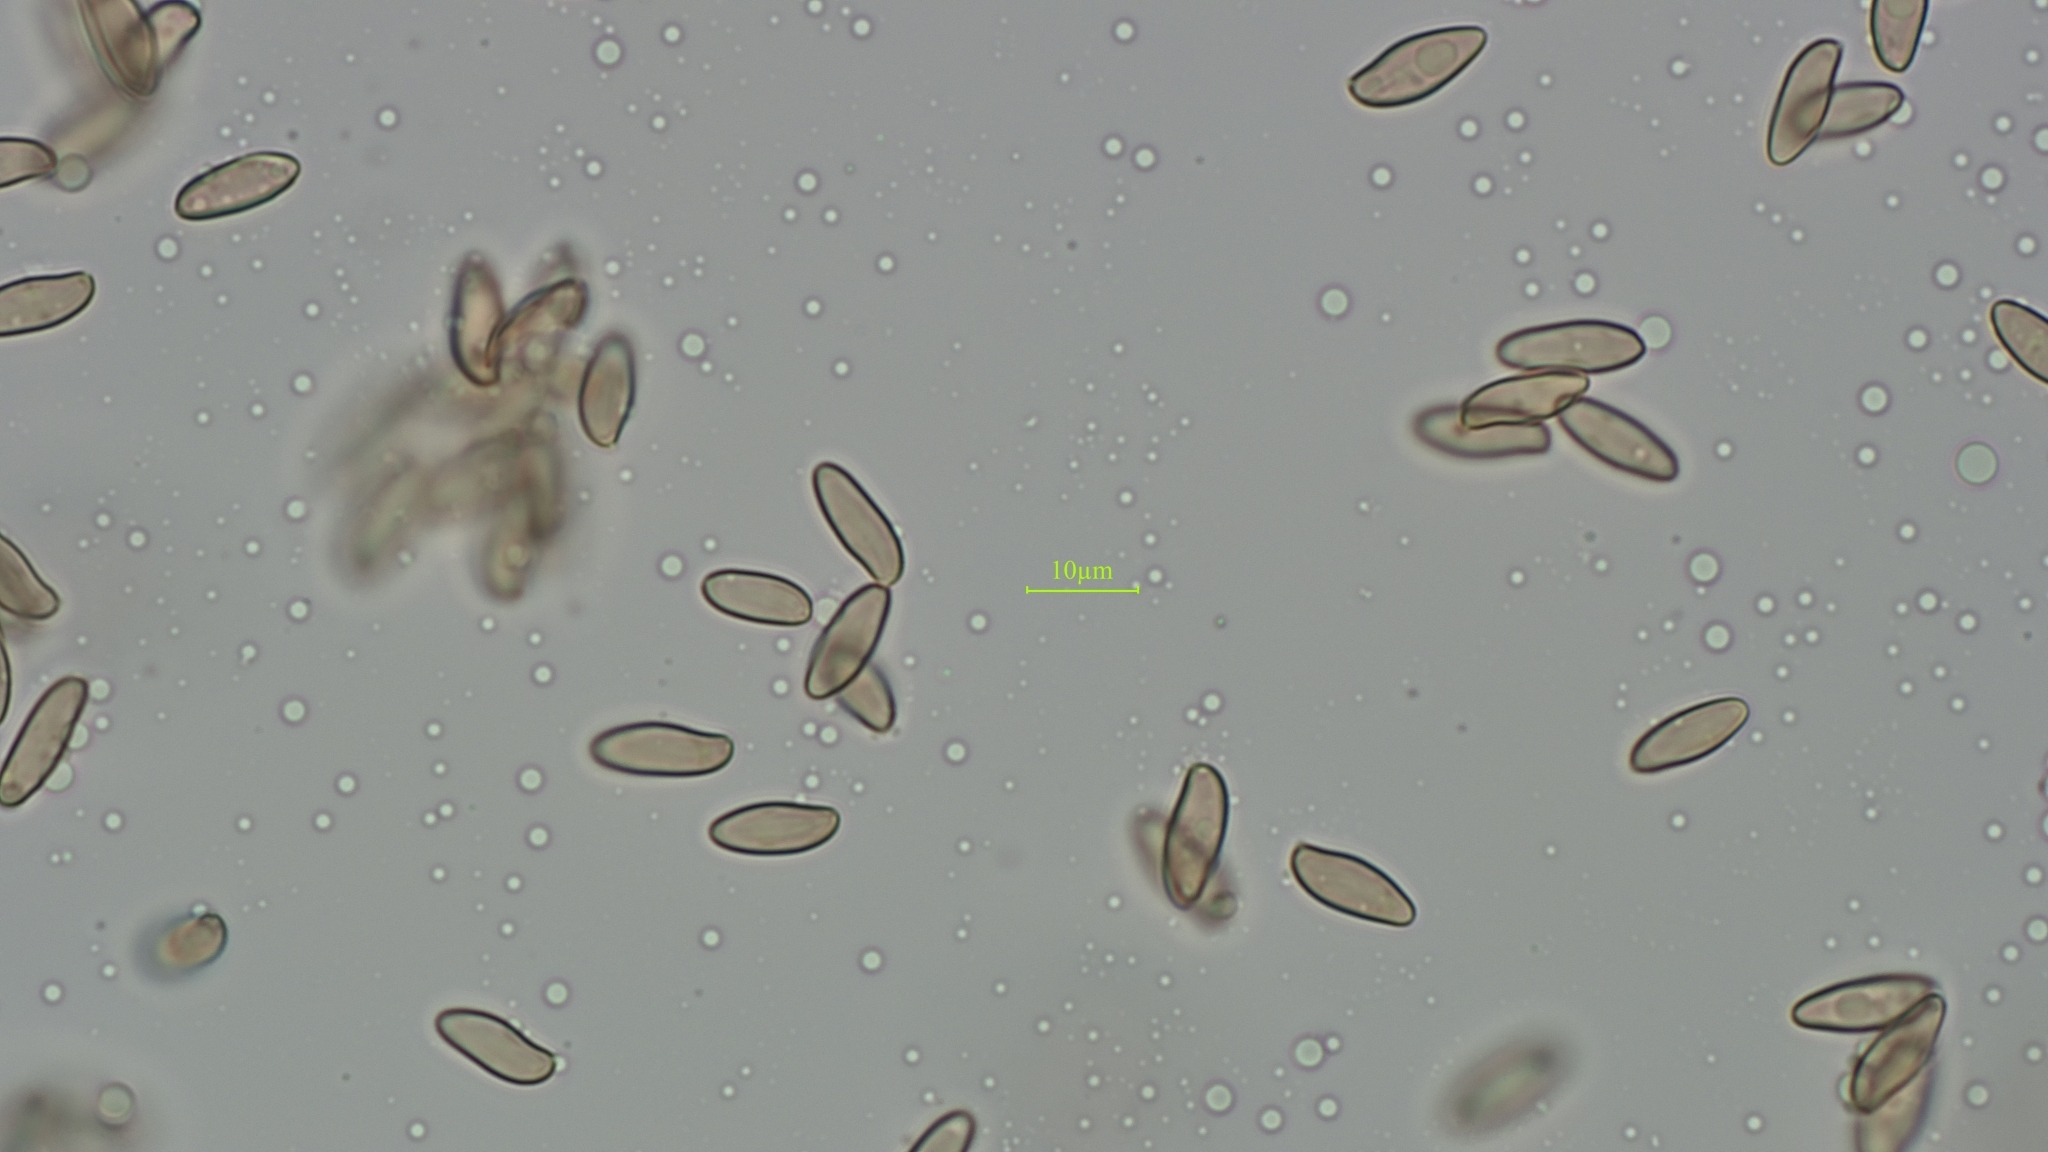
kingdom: Fungi
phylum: Basidiomycota
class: Agaricomycetes
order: Boletales
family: Boletaceae
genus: Xerocomellus
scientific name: Xerocomellus cisalpinus
